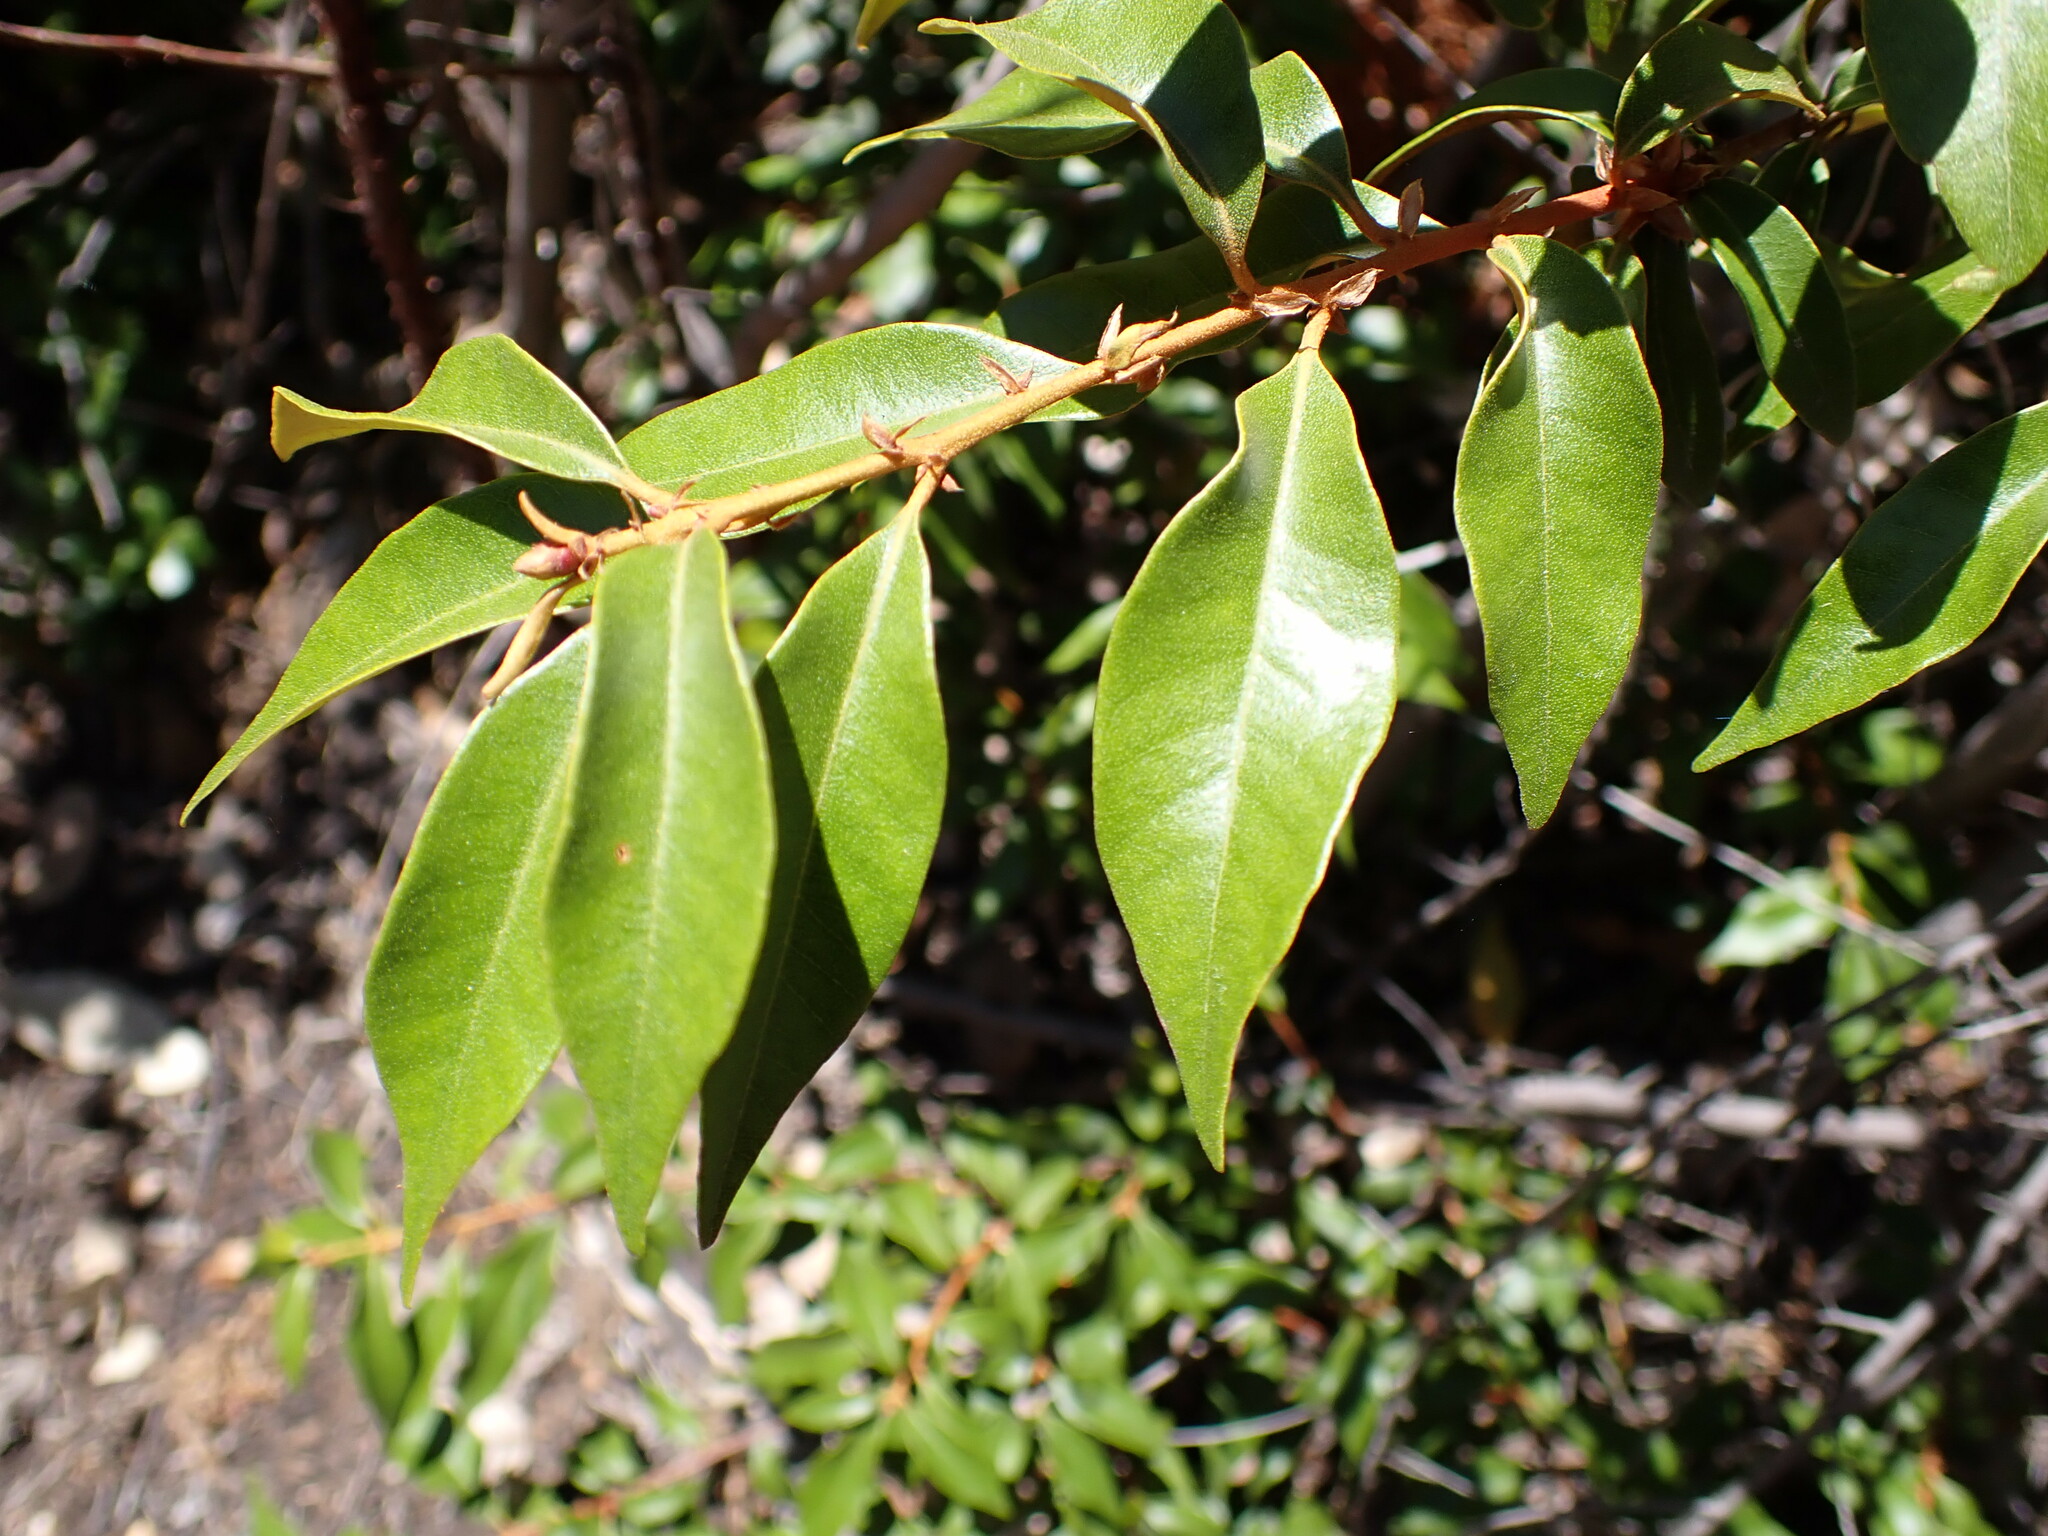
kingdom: Plantae
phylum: Tracheophyta
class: Magnoliopsida
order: Fagales
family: Fagaceae
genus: Chrysolepis
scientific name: Chrysolepis chrysophylla
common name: Giant chinquapin
